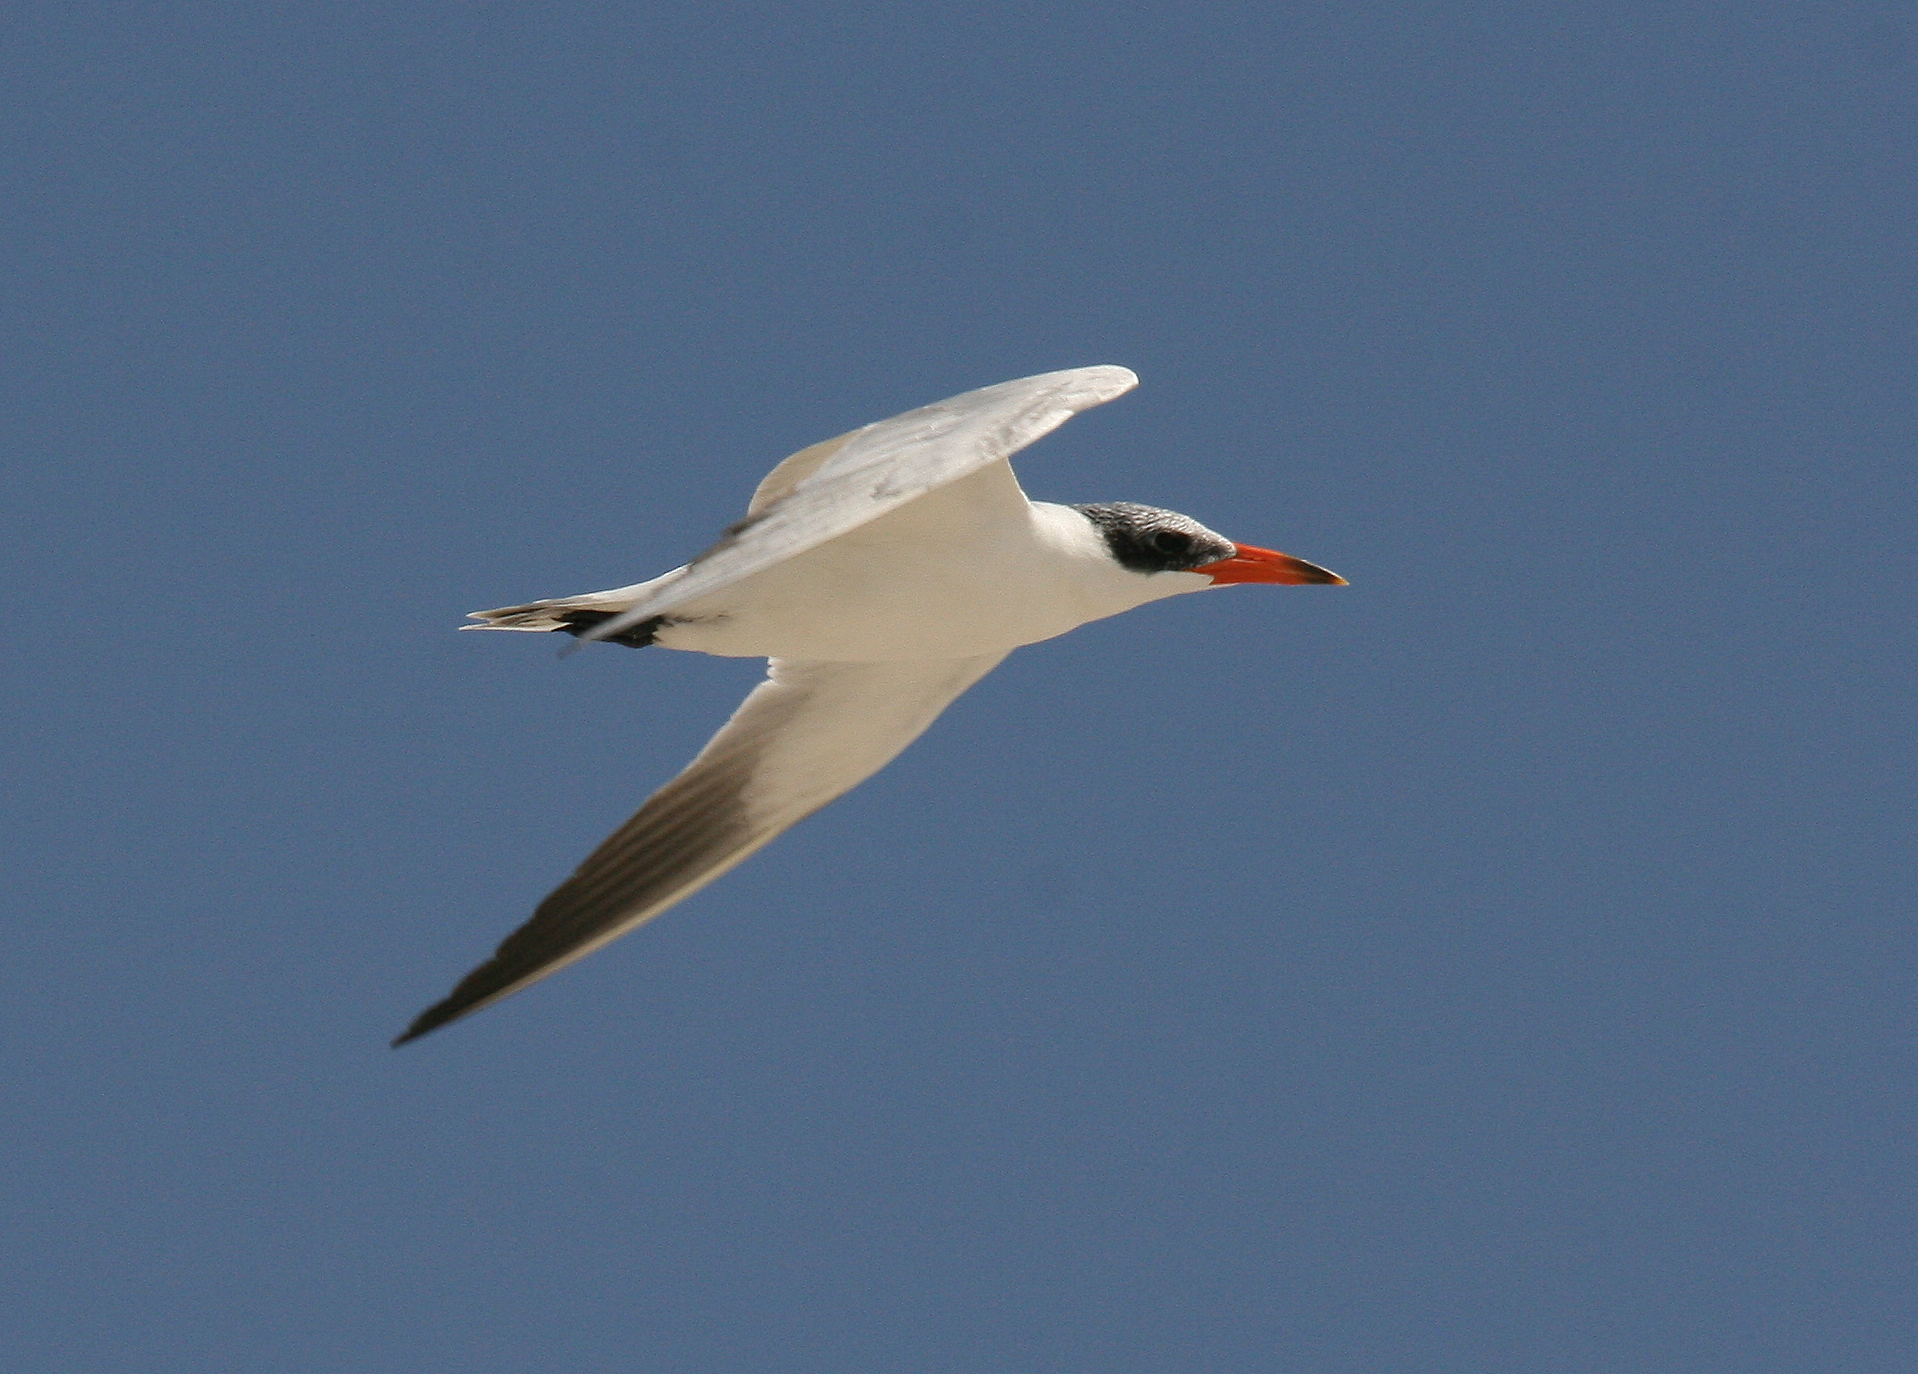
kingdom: Animalia
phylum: Chordata
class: Aves
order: Charadriiformes
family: Laridae
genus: Hydroprogne
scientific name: Hydroprogne caspia
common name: Caspian tern
